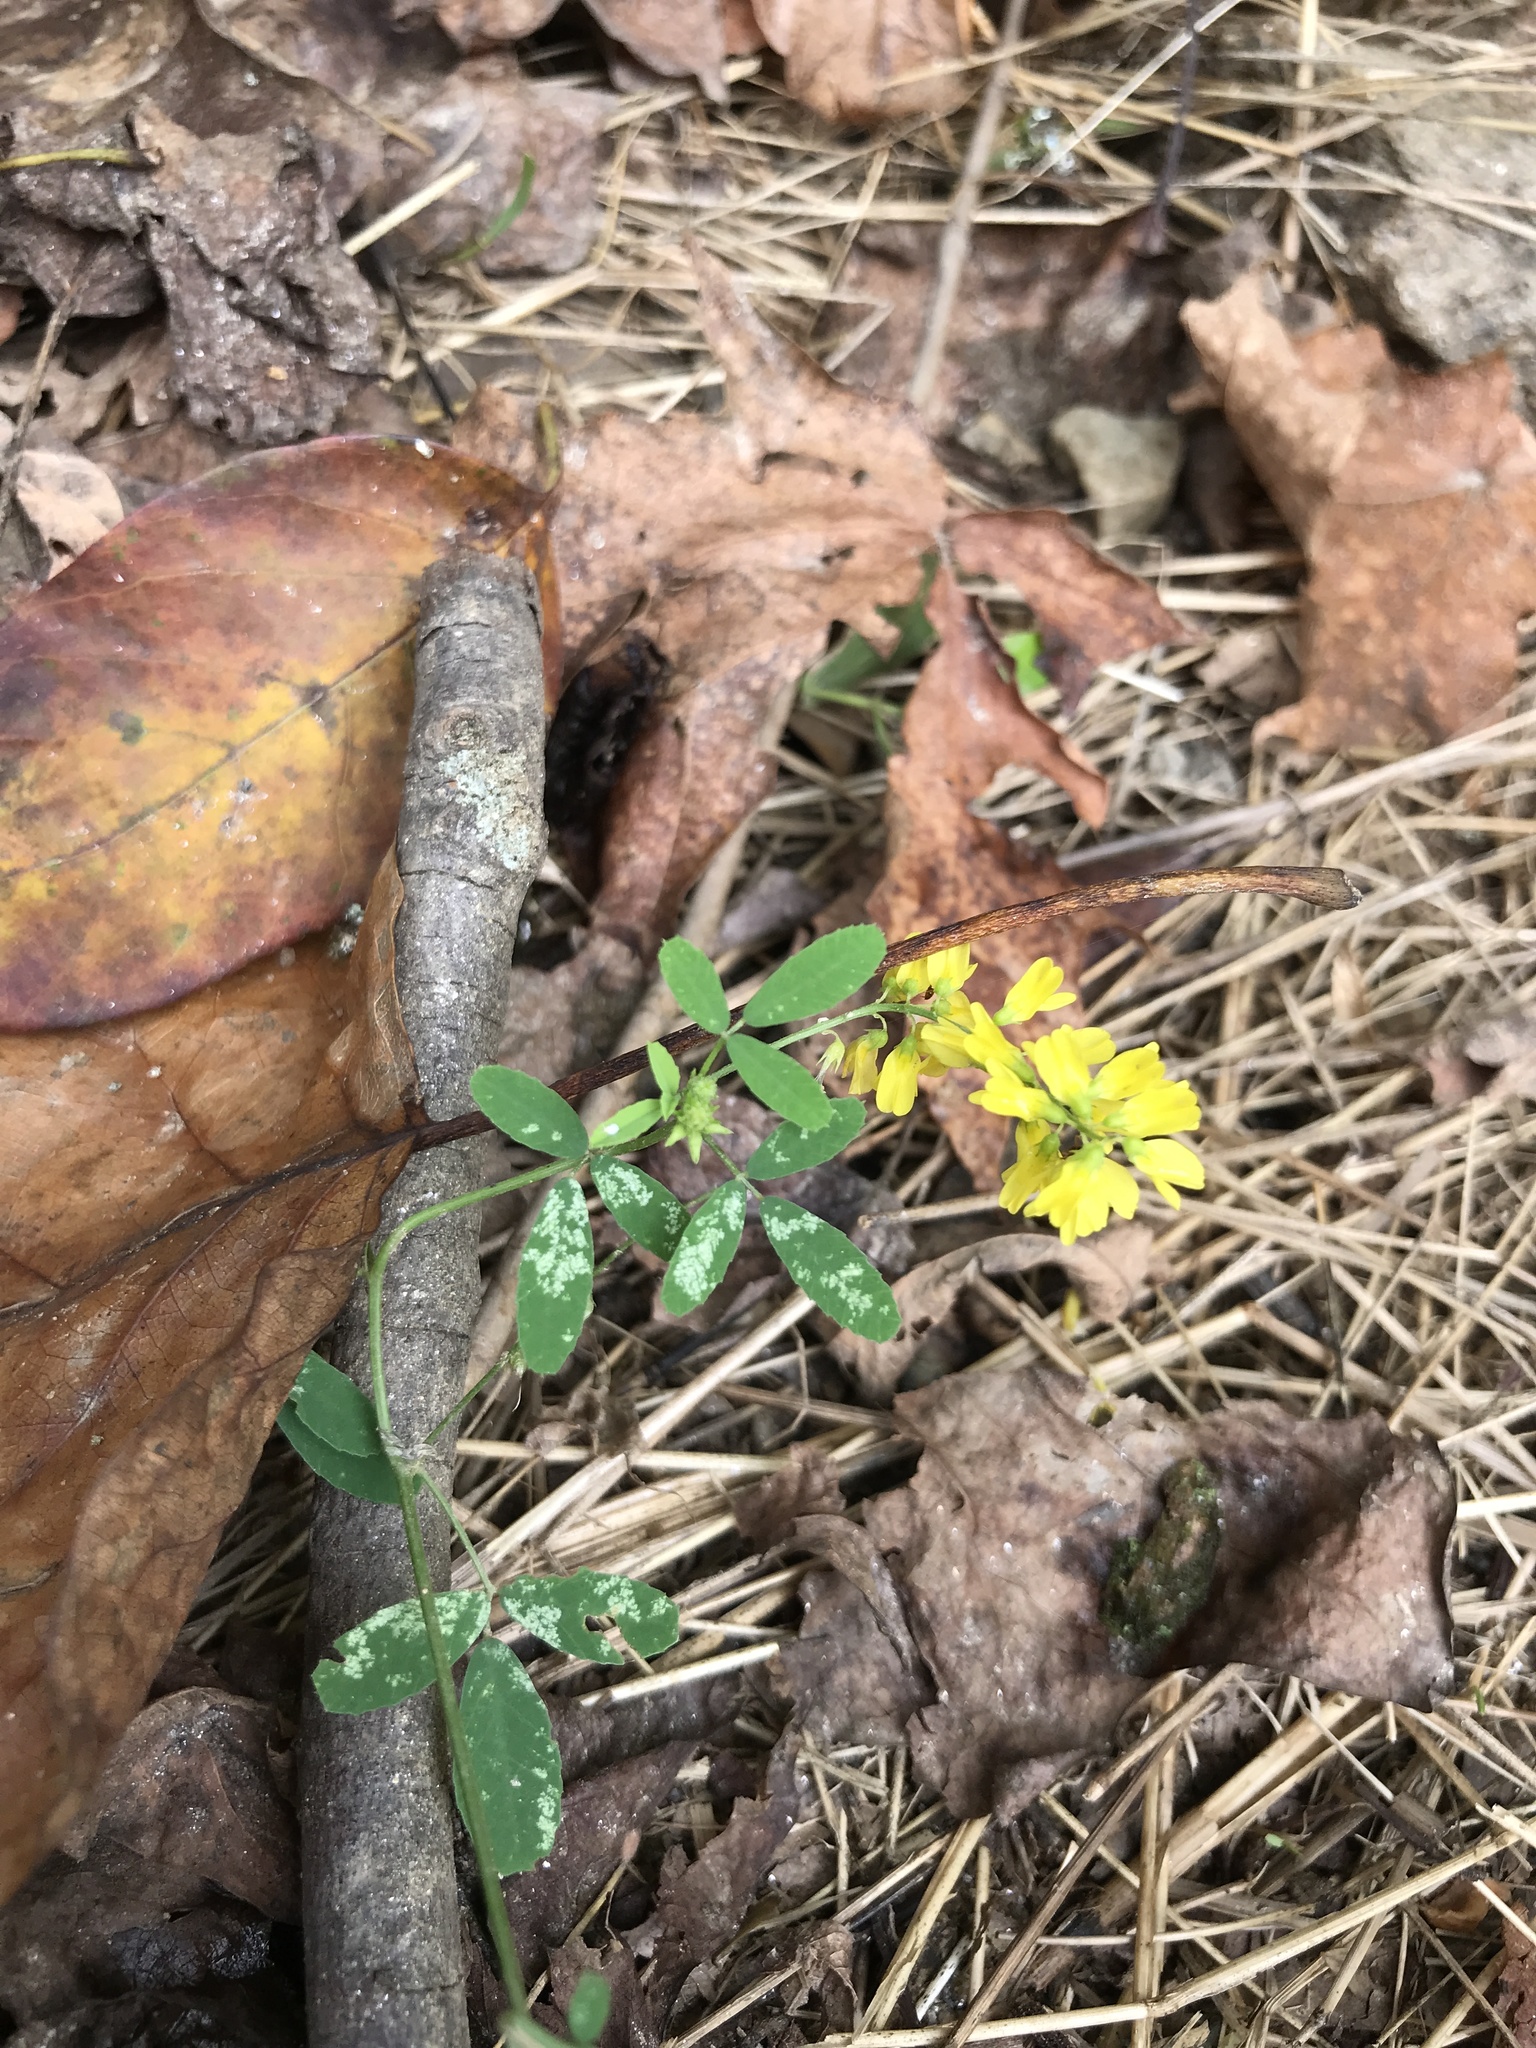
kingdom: Plantae
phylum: Tracheophyta
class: Magnoliopsida
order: Fabales
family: Fabaceae
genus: Melilotus
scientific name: Melilotus officinalis
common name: Sweetclover
